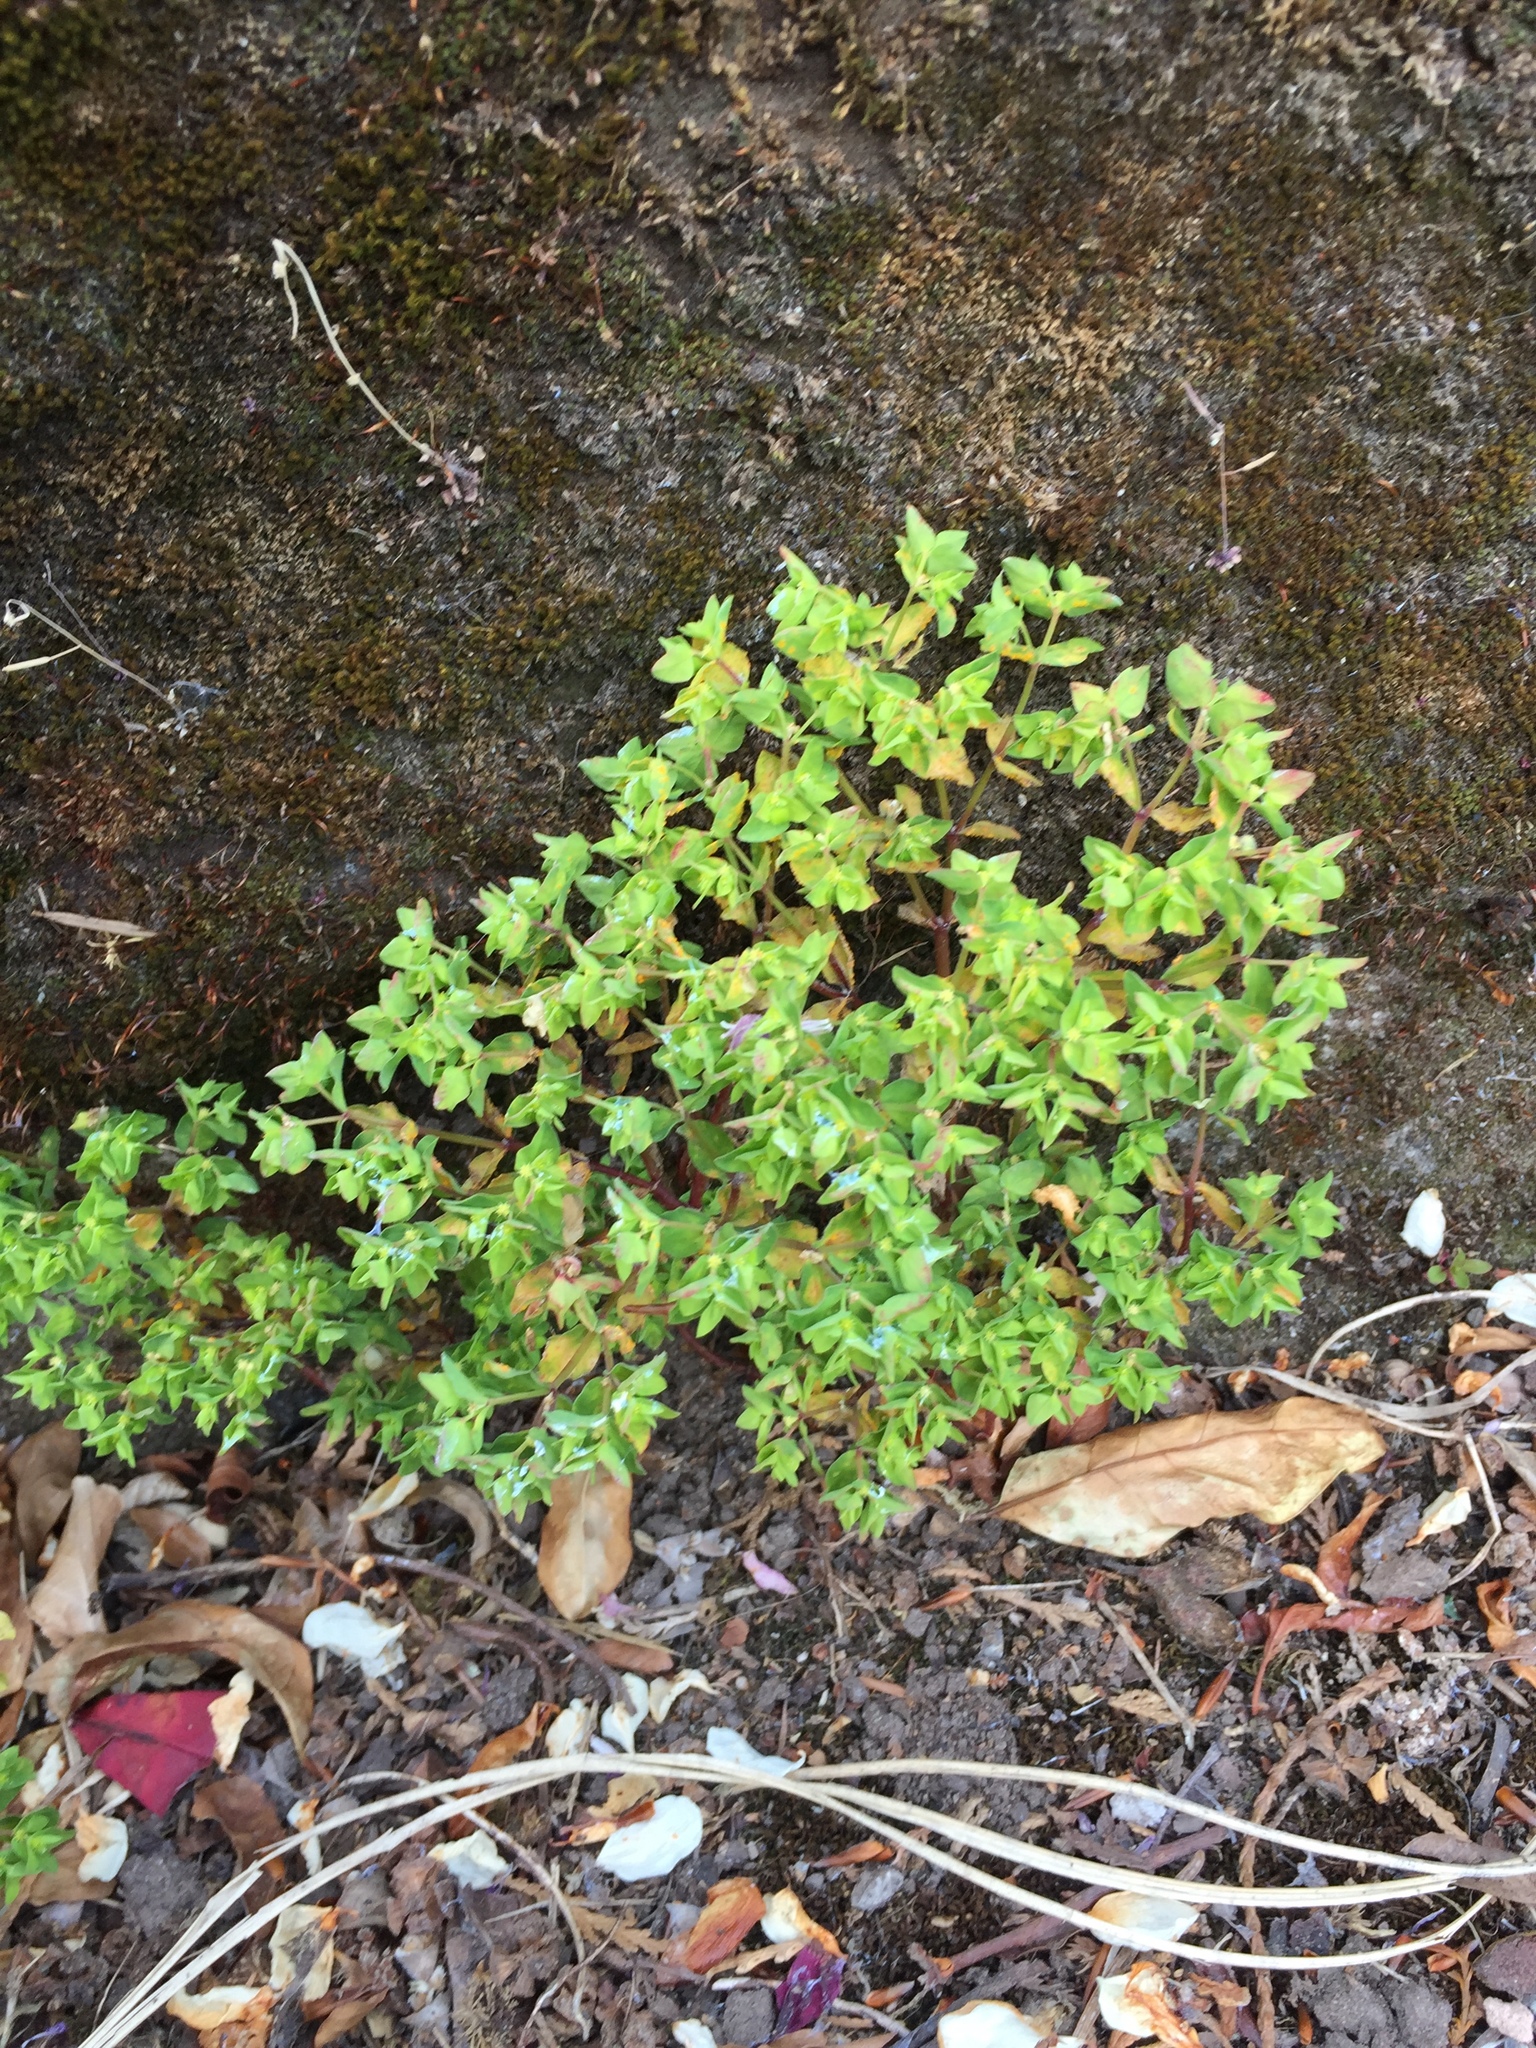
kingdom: Plantae
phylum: Tracheophyta
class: Magnoliopsida
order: Malpighiales
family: Euphorbiaceae
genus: Euphorbia
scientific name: Euphorbia peplus
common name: Petty spurge
